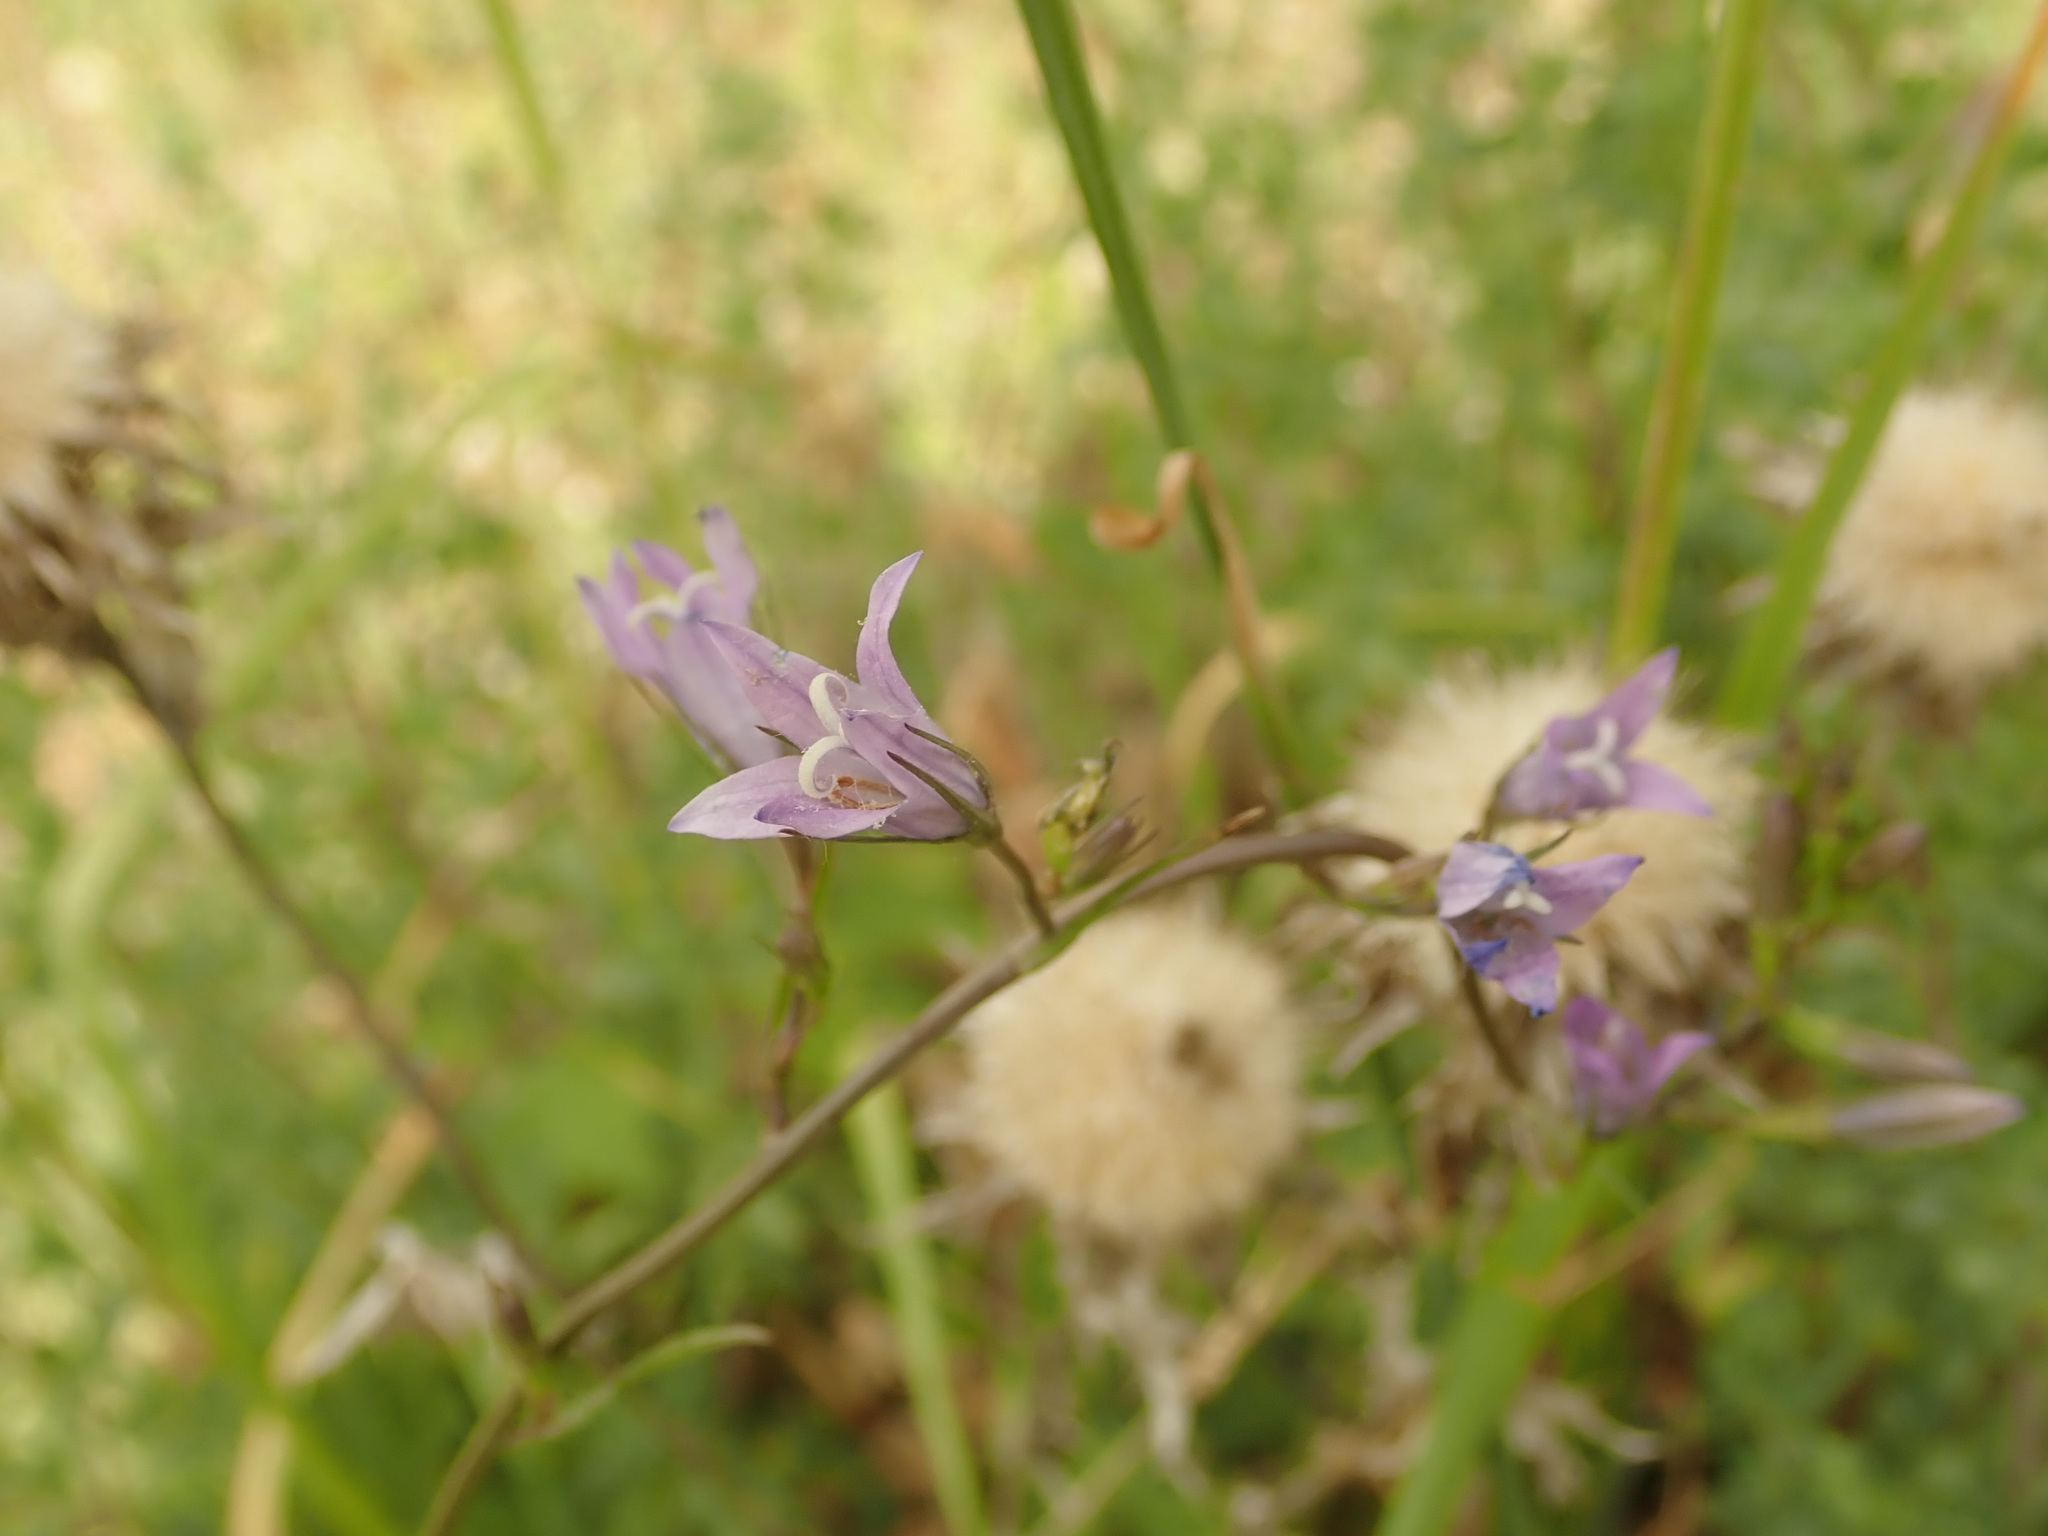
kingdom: Plantae
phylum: Tracheophyta
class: Magnoliopsida
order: Asterales
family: Campanulaceae
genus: Campanula
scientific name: Campanula rapunculus
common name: Rampion bellflower
